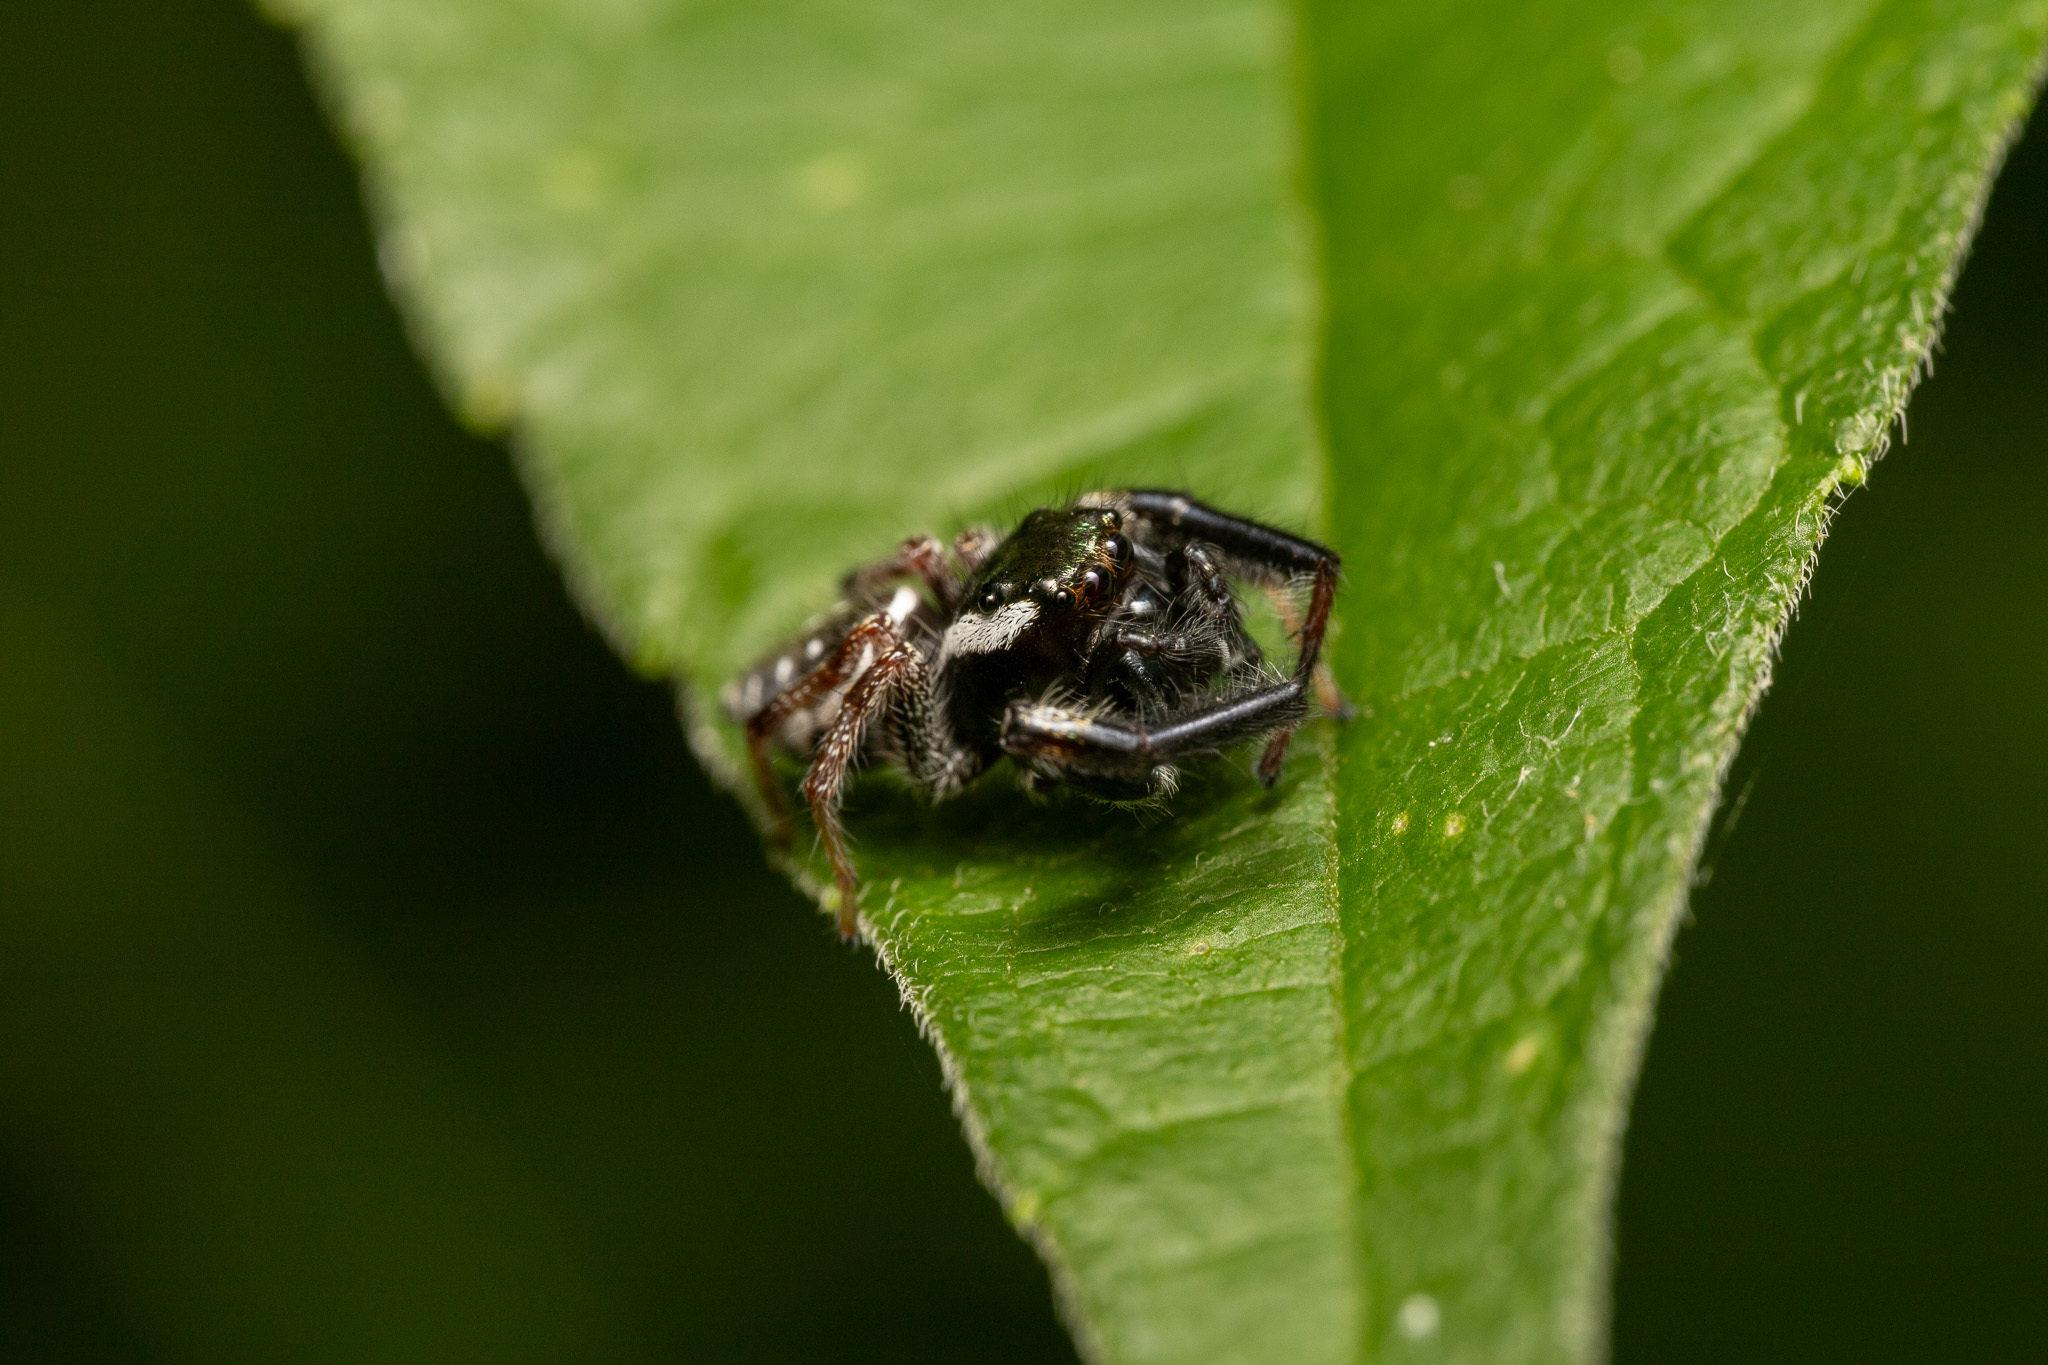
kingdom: Animalia
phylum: Arthropoda
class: Arachnida
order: Araneae
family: Salticidae
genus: Paraphidippus
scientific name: Paraphidippus aurantius
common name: Jumping spiders
